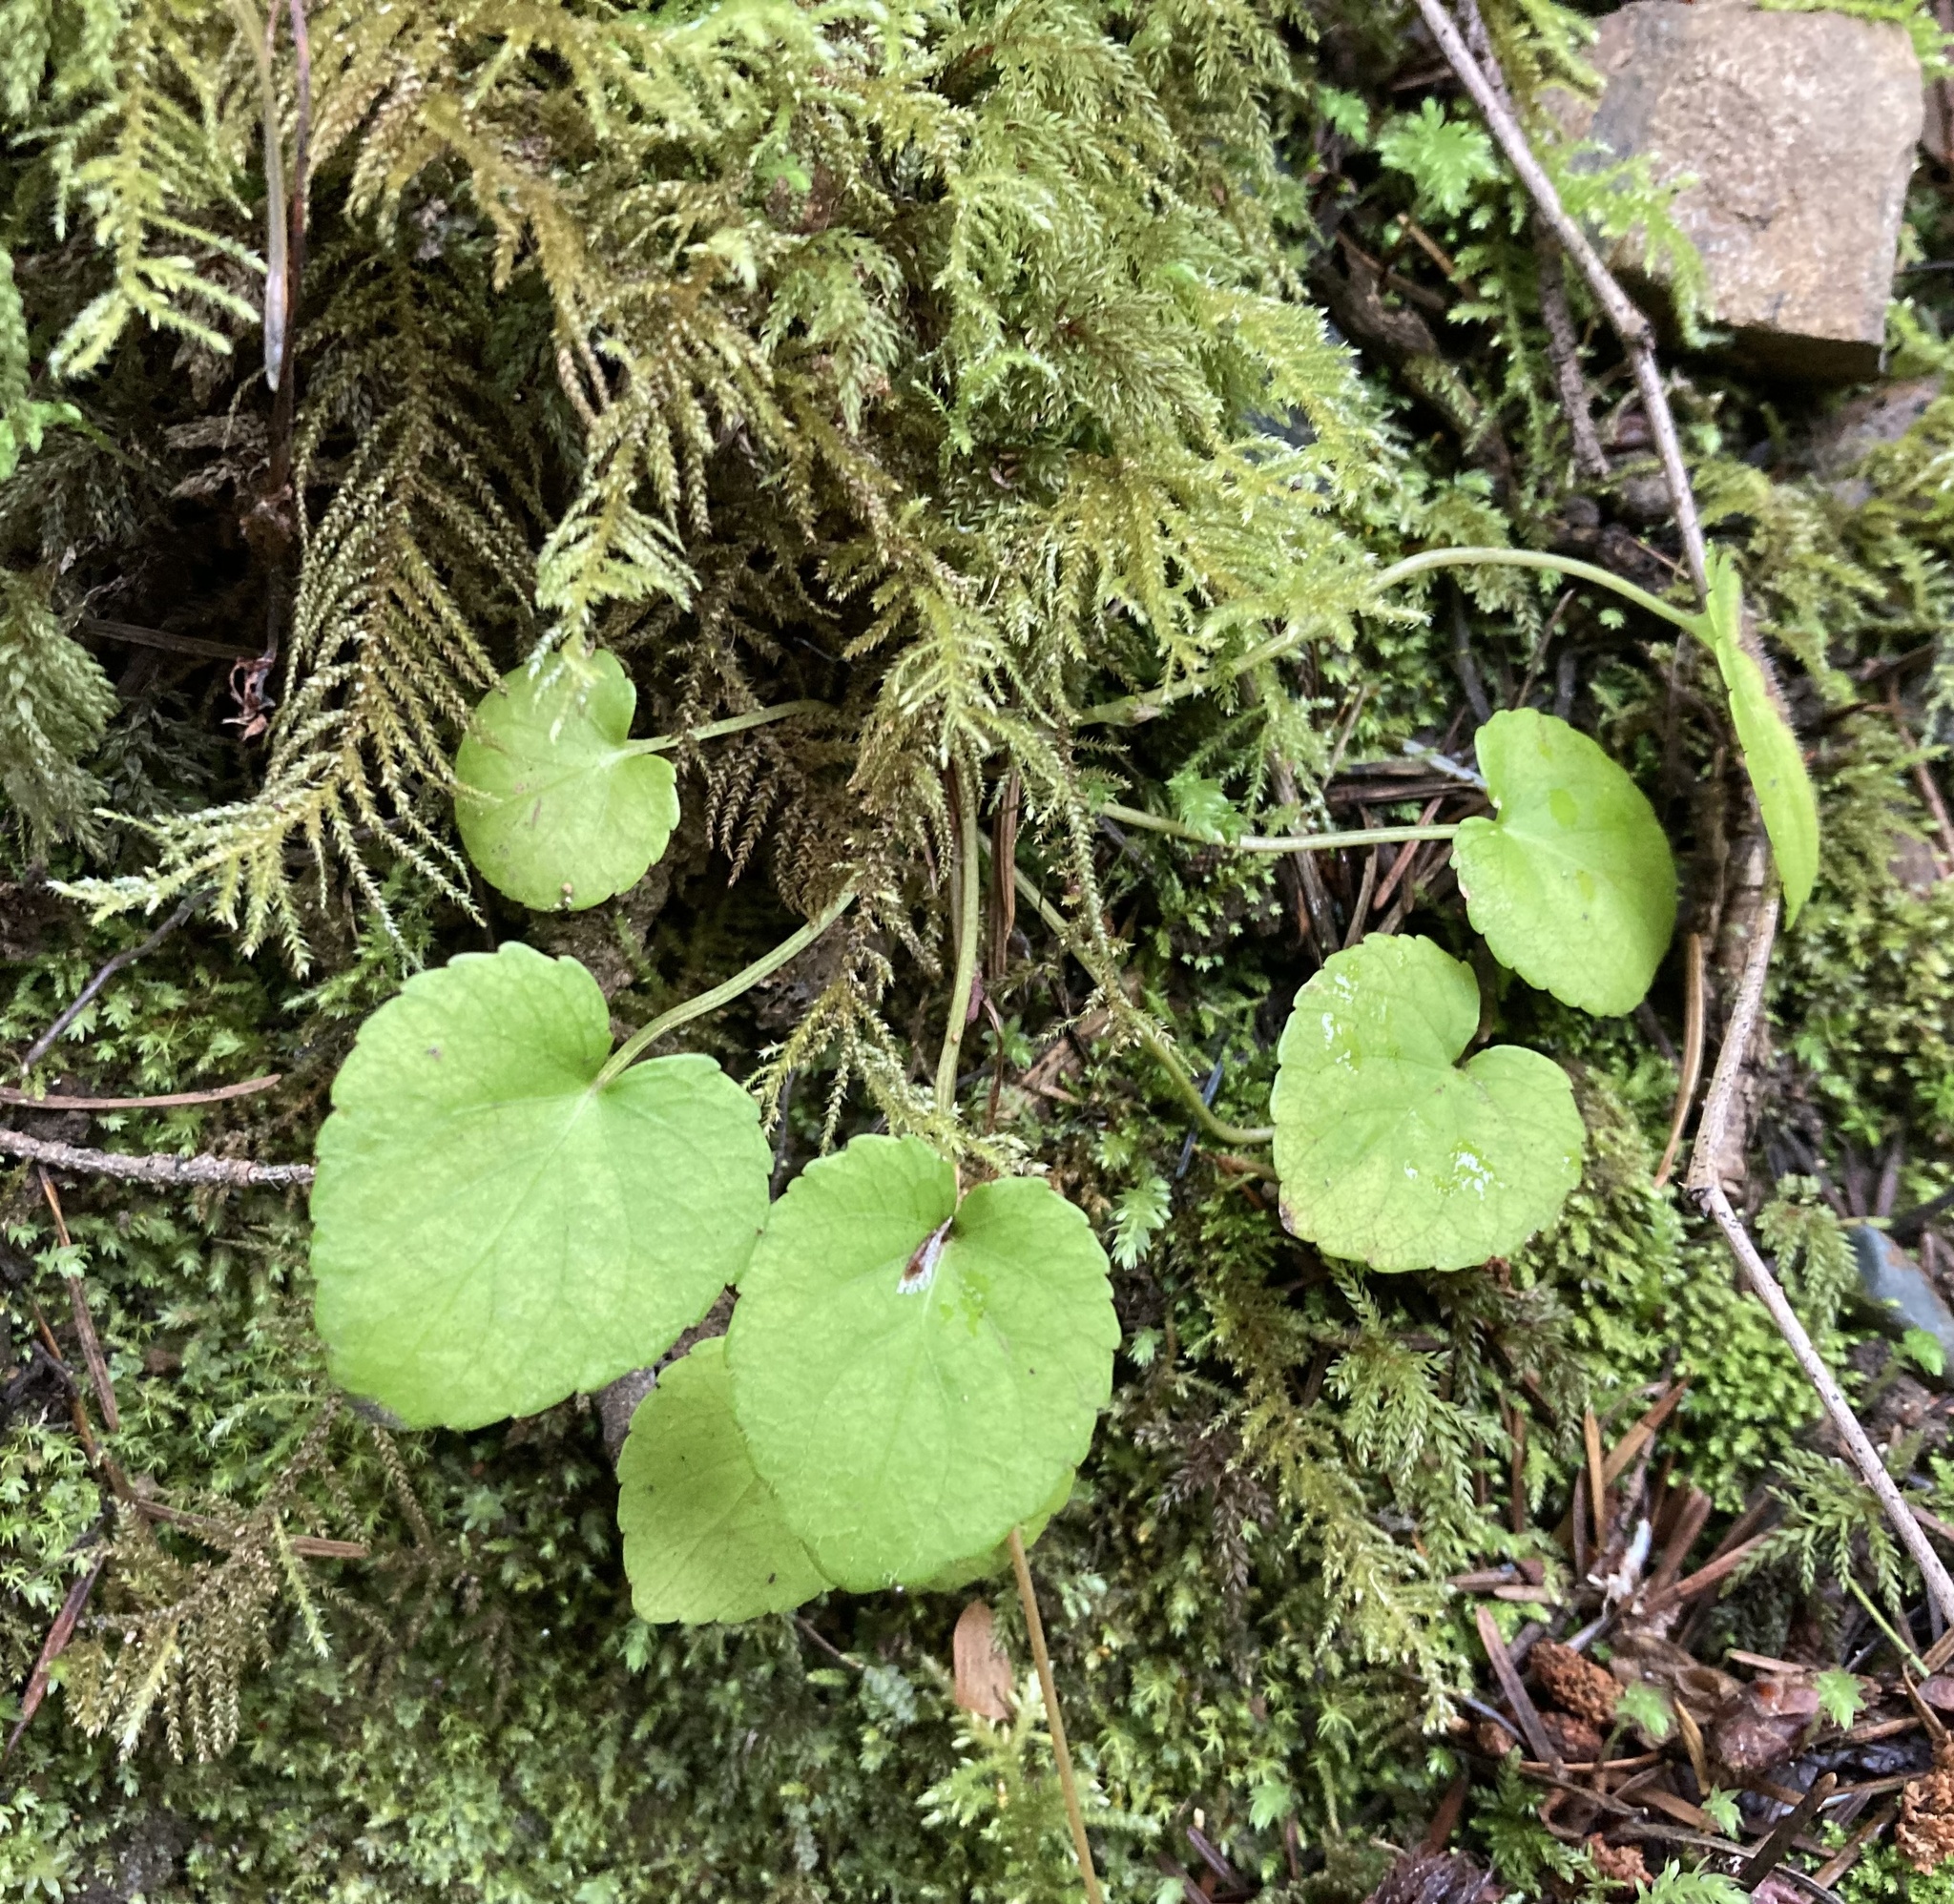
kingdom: Plantae
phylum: Tracheophyta
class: Magnoliopsida
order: Malpighiales
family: Violaceae
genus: Viola
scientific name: Viola sempervirens
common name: Evergreen violet
